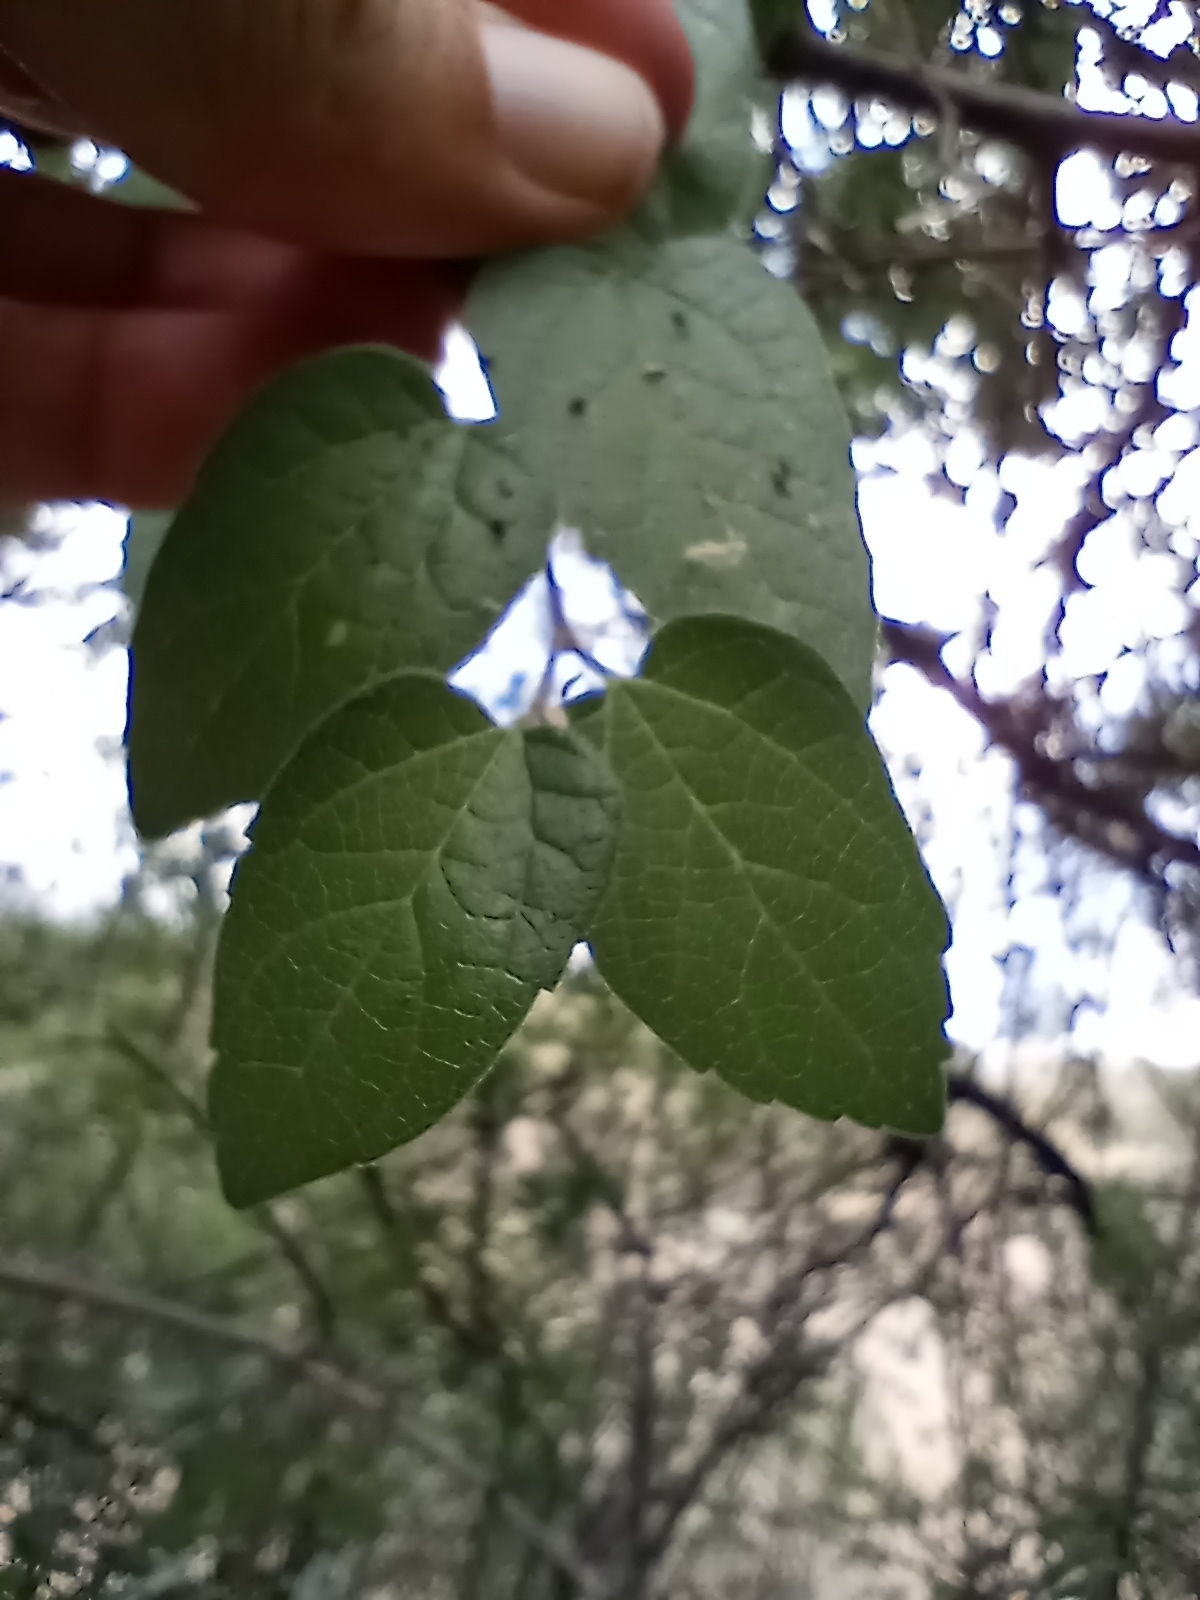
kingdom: Plantae
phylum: Tracheophyta
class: Magnoliopsida
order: Rosales
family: Cannabaceae
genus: Celtis
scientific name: Celtis reticulata
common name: Netleaf hackberry
